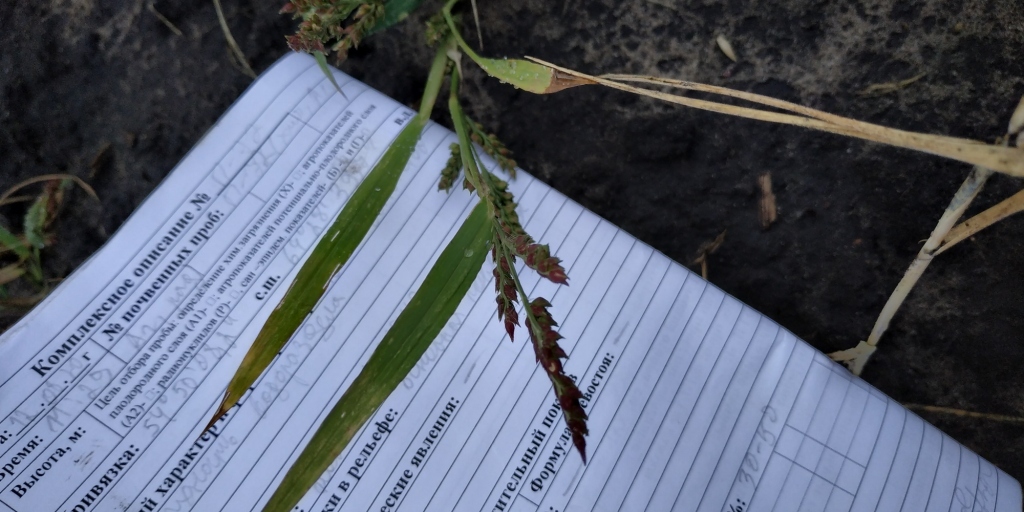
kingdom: Plantae
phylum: Tracheophyta
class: Liliopsida
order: Poales
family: Poaceae
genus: Echinochloa
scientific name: Echinochloa crus-galli
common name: Cockspur
